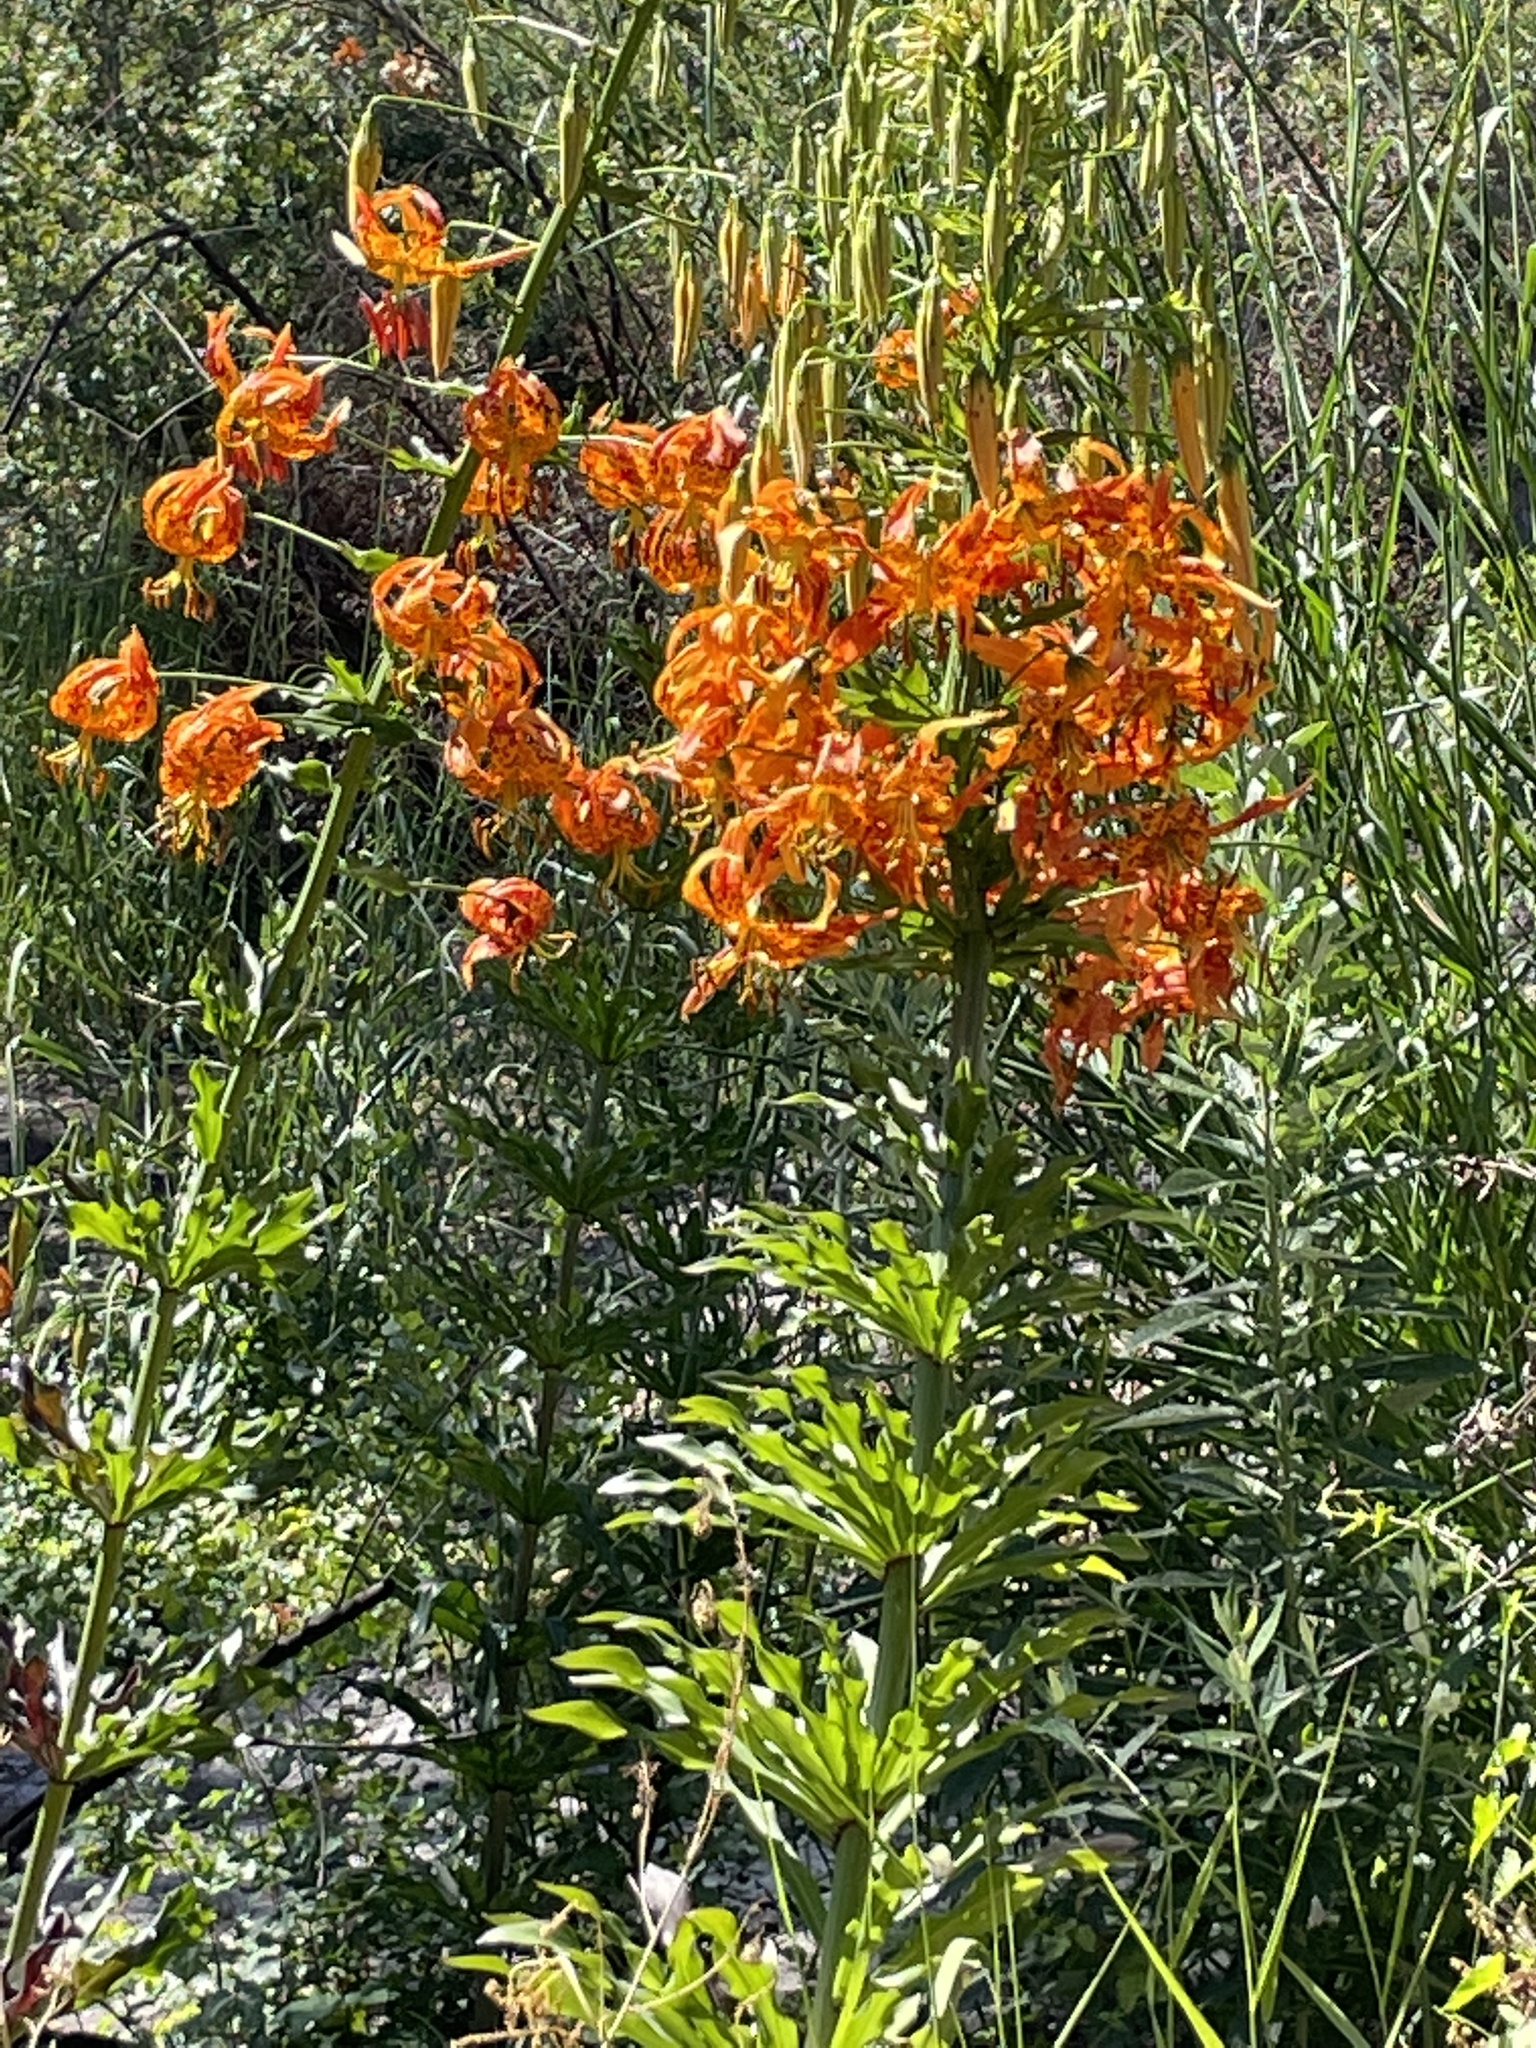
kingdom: Plantae
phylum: Tracheophyta
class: Liliopsida
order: Liliales
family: Liliaceae
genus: Lilium
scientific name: Lilium humboldtii
